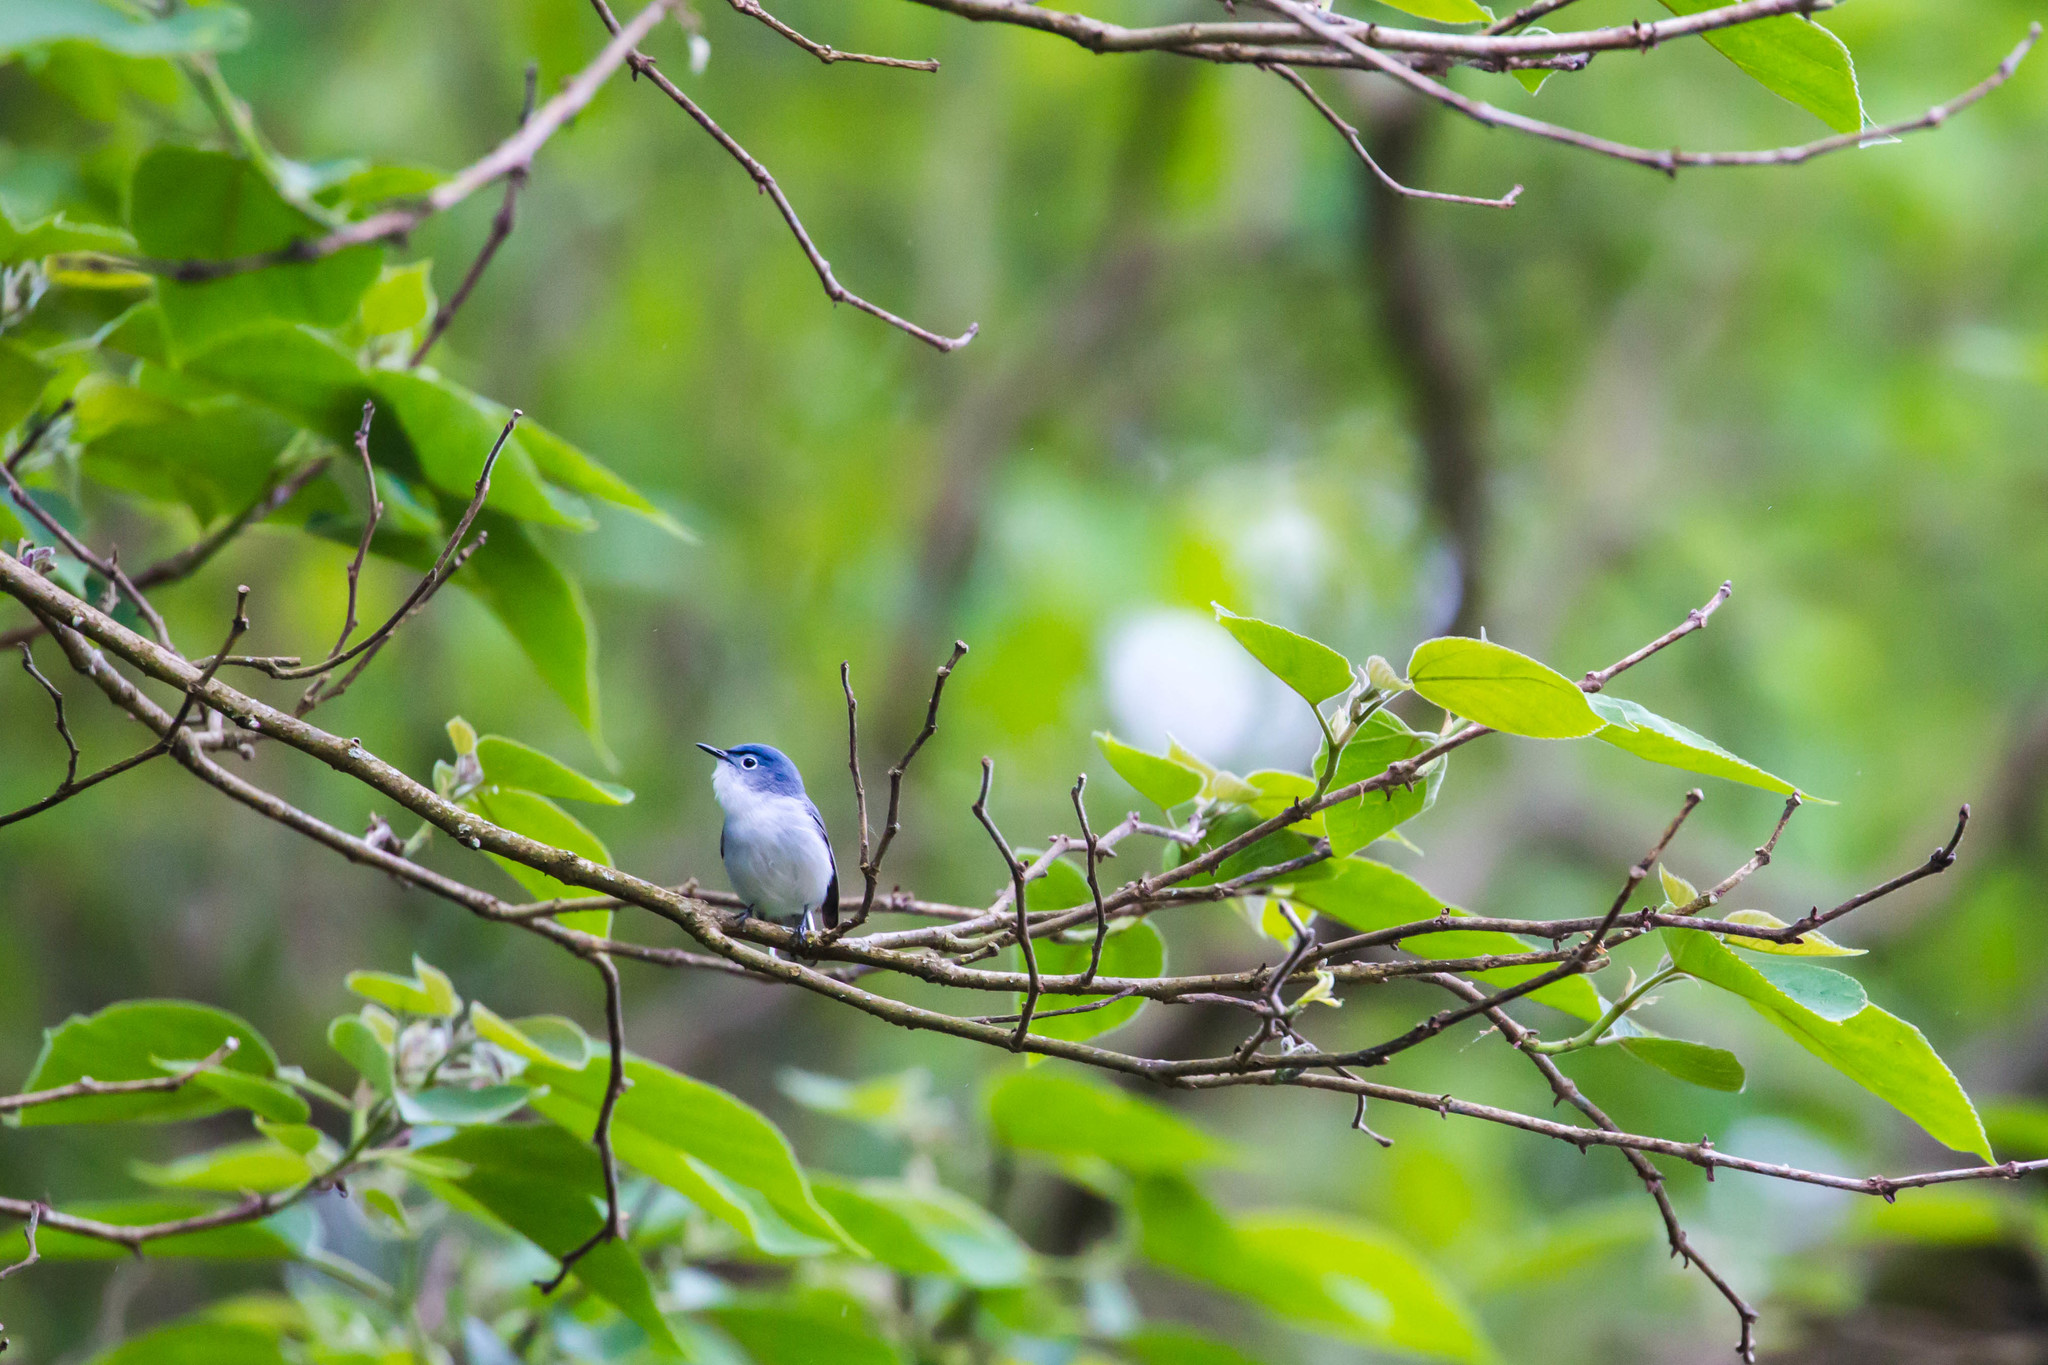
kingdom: Animalia
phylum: Chordata
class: Aves
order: Passeriformes
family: Polioptilidae
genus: Polioptila
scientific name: Polioptila caerulea
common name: Blue-gray gnatcatcher
